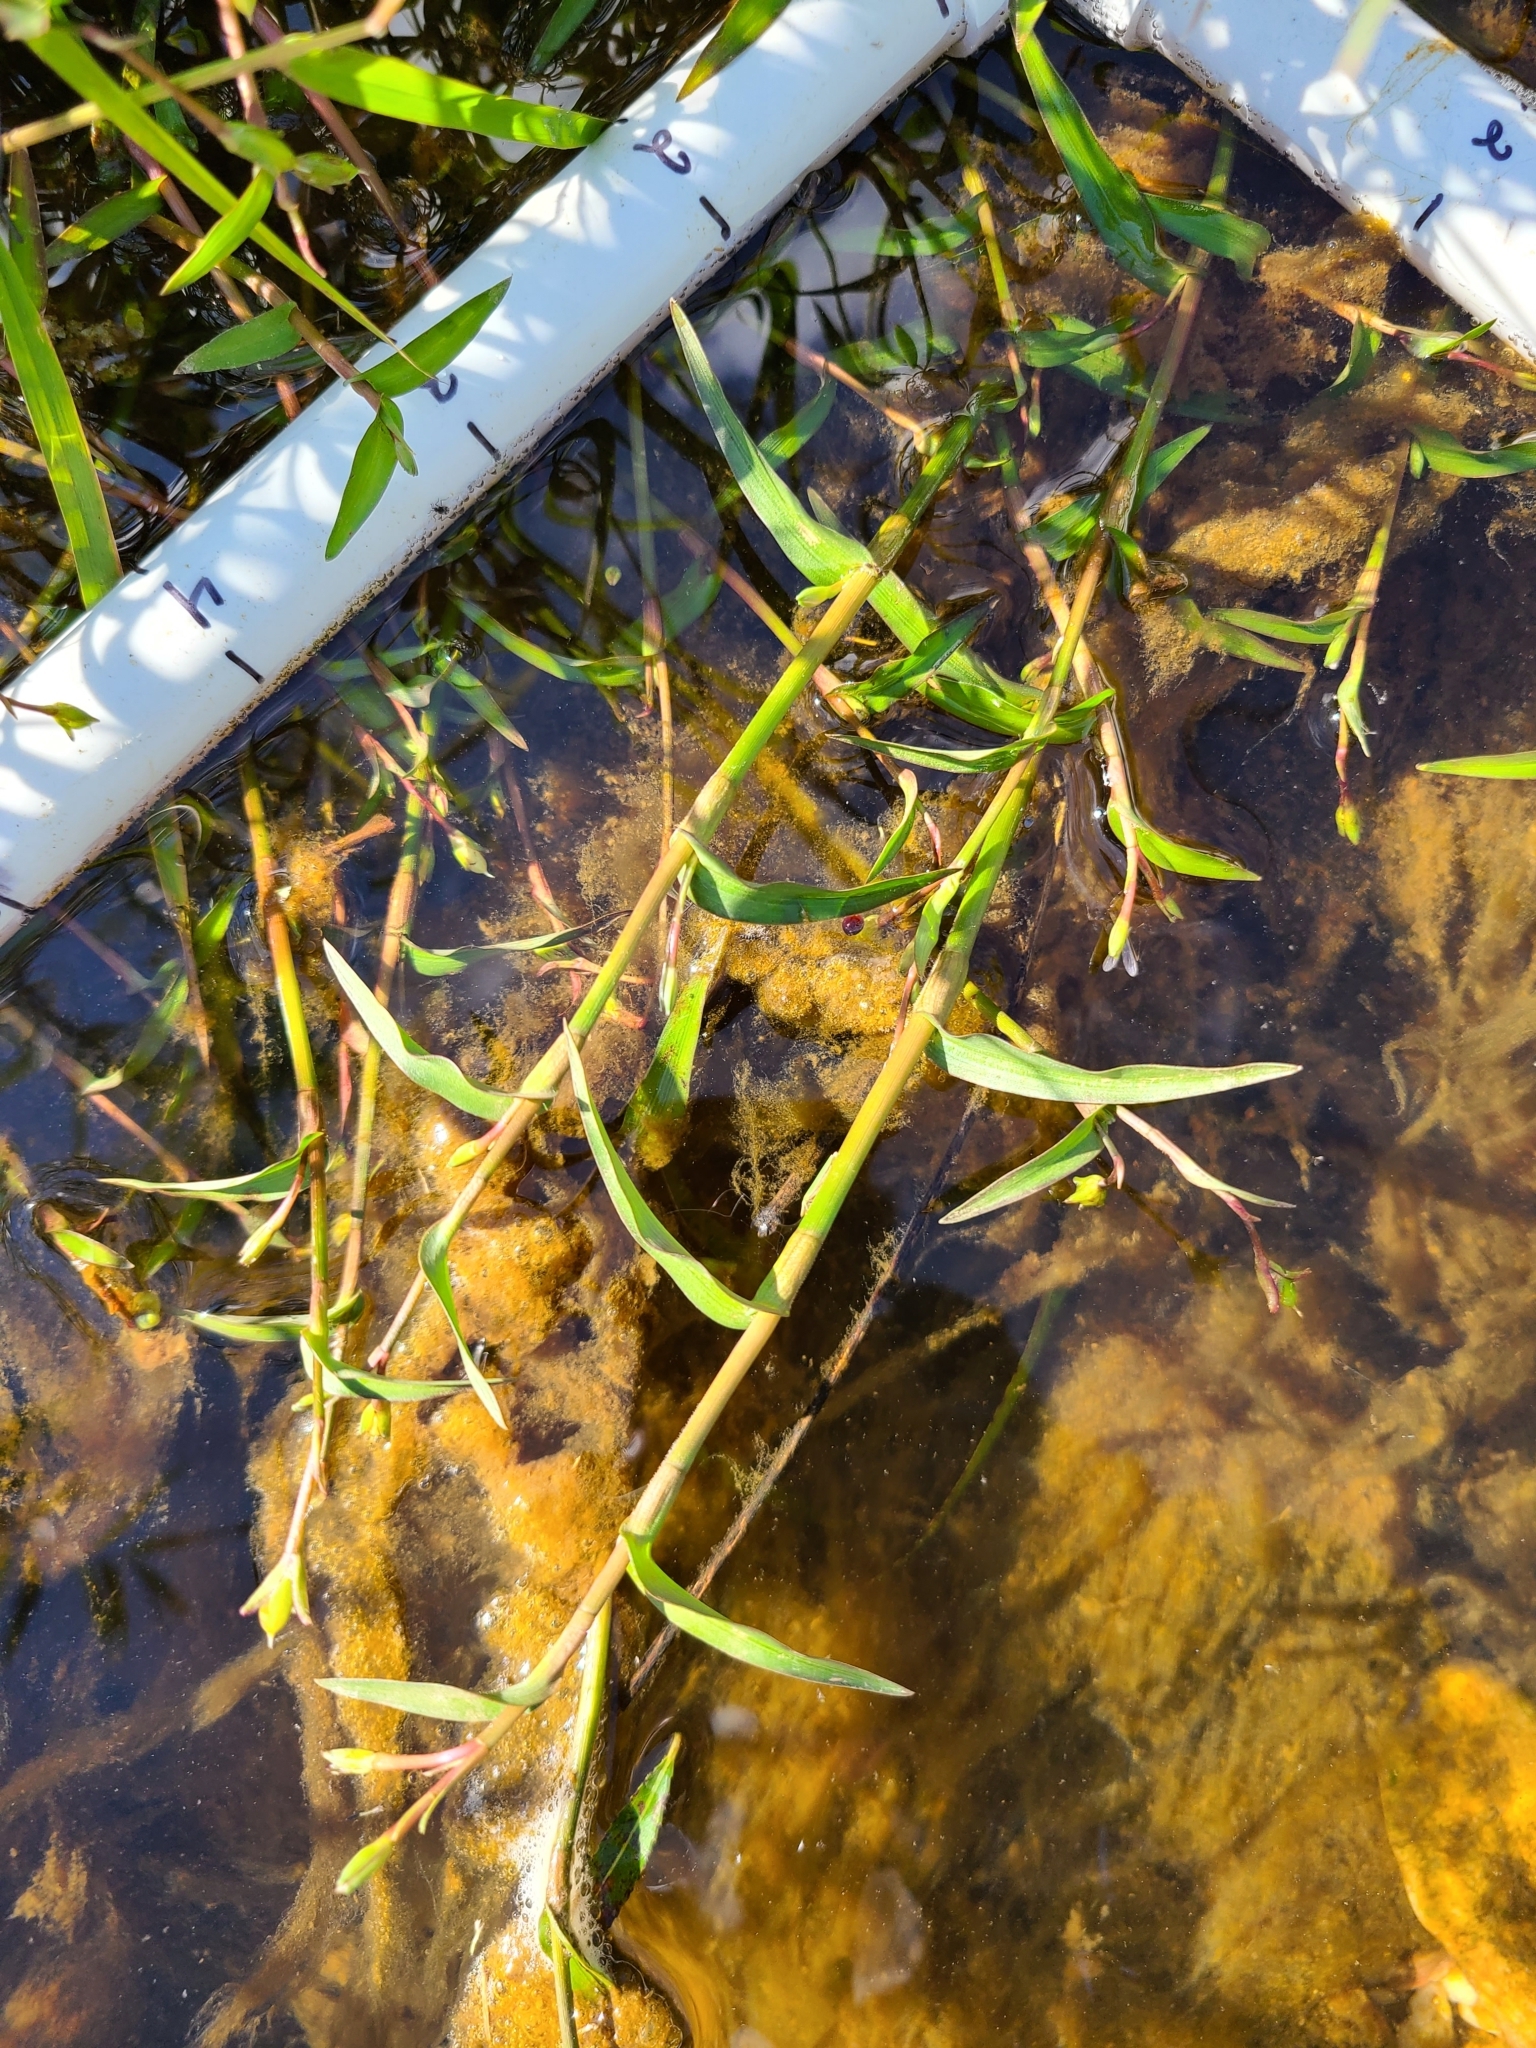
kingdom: Plantae
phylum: Tracheophyta
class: Liliopsida
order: Commelinales
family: Commelinaceae
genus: Murdannia
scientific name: Murdannia keisak
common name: Wartremoving herb
